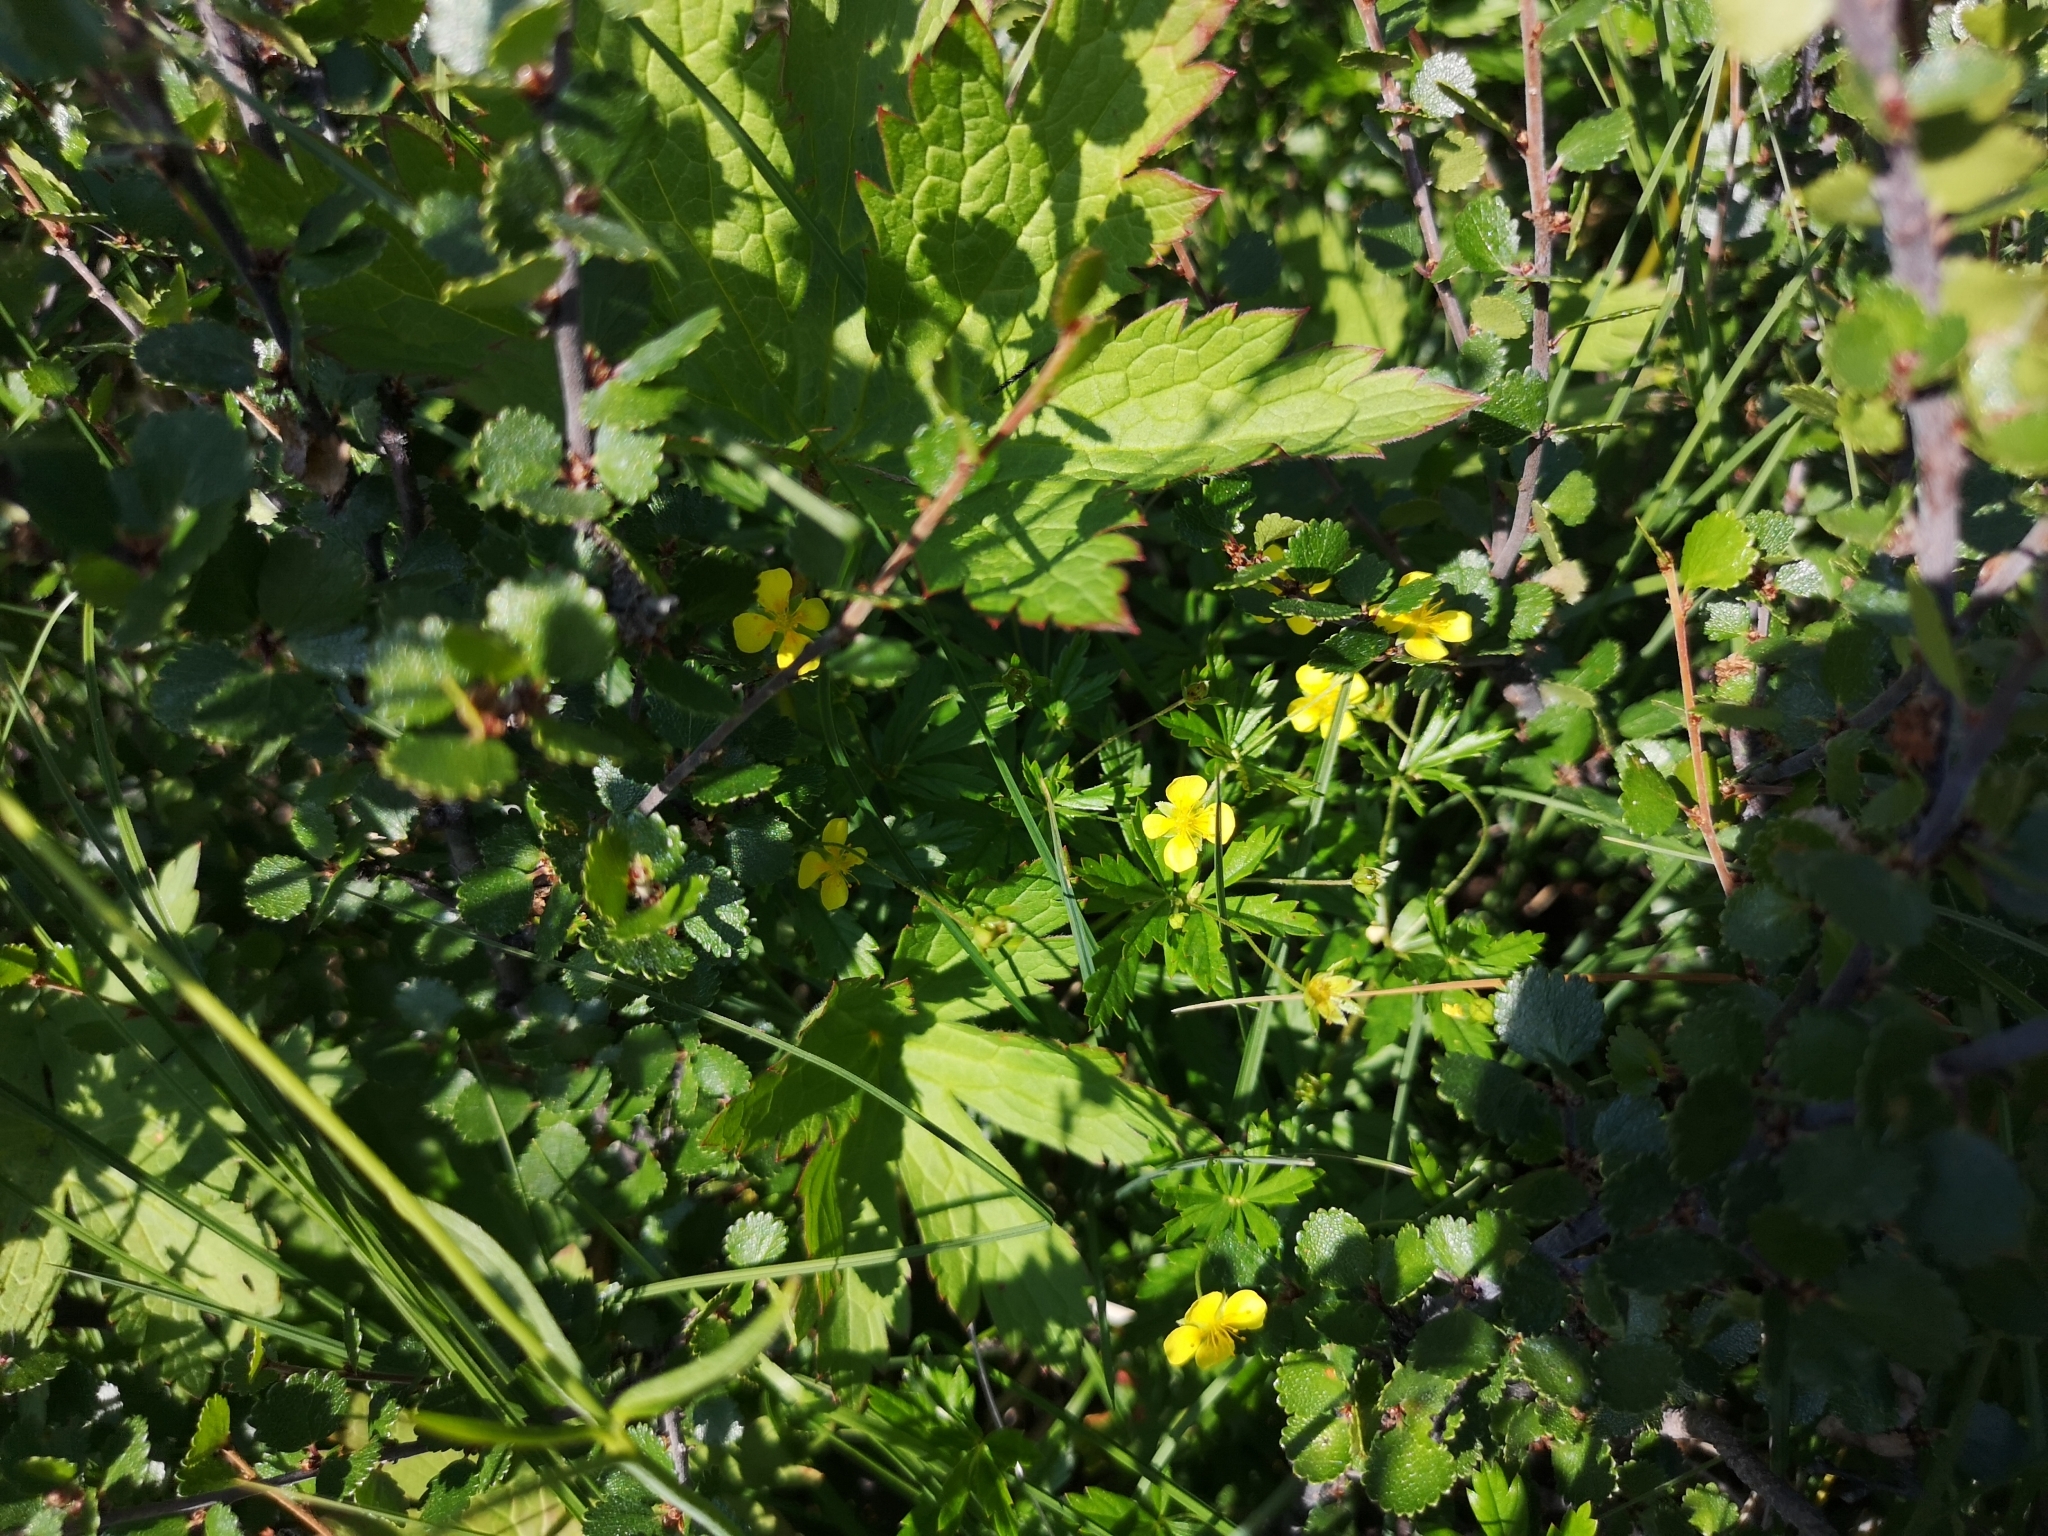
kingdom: Plantae
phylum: Tracheophyta
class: Magnoliopsida
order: Rosales
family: Rosaceae
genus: Potentilla
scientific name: Potentilla erecta
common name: Tormentil
